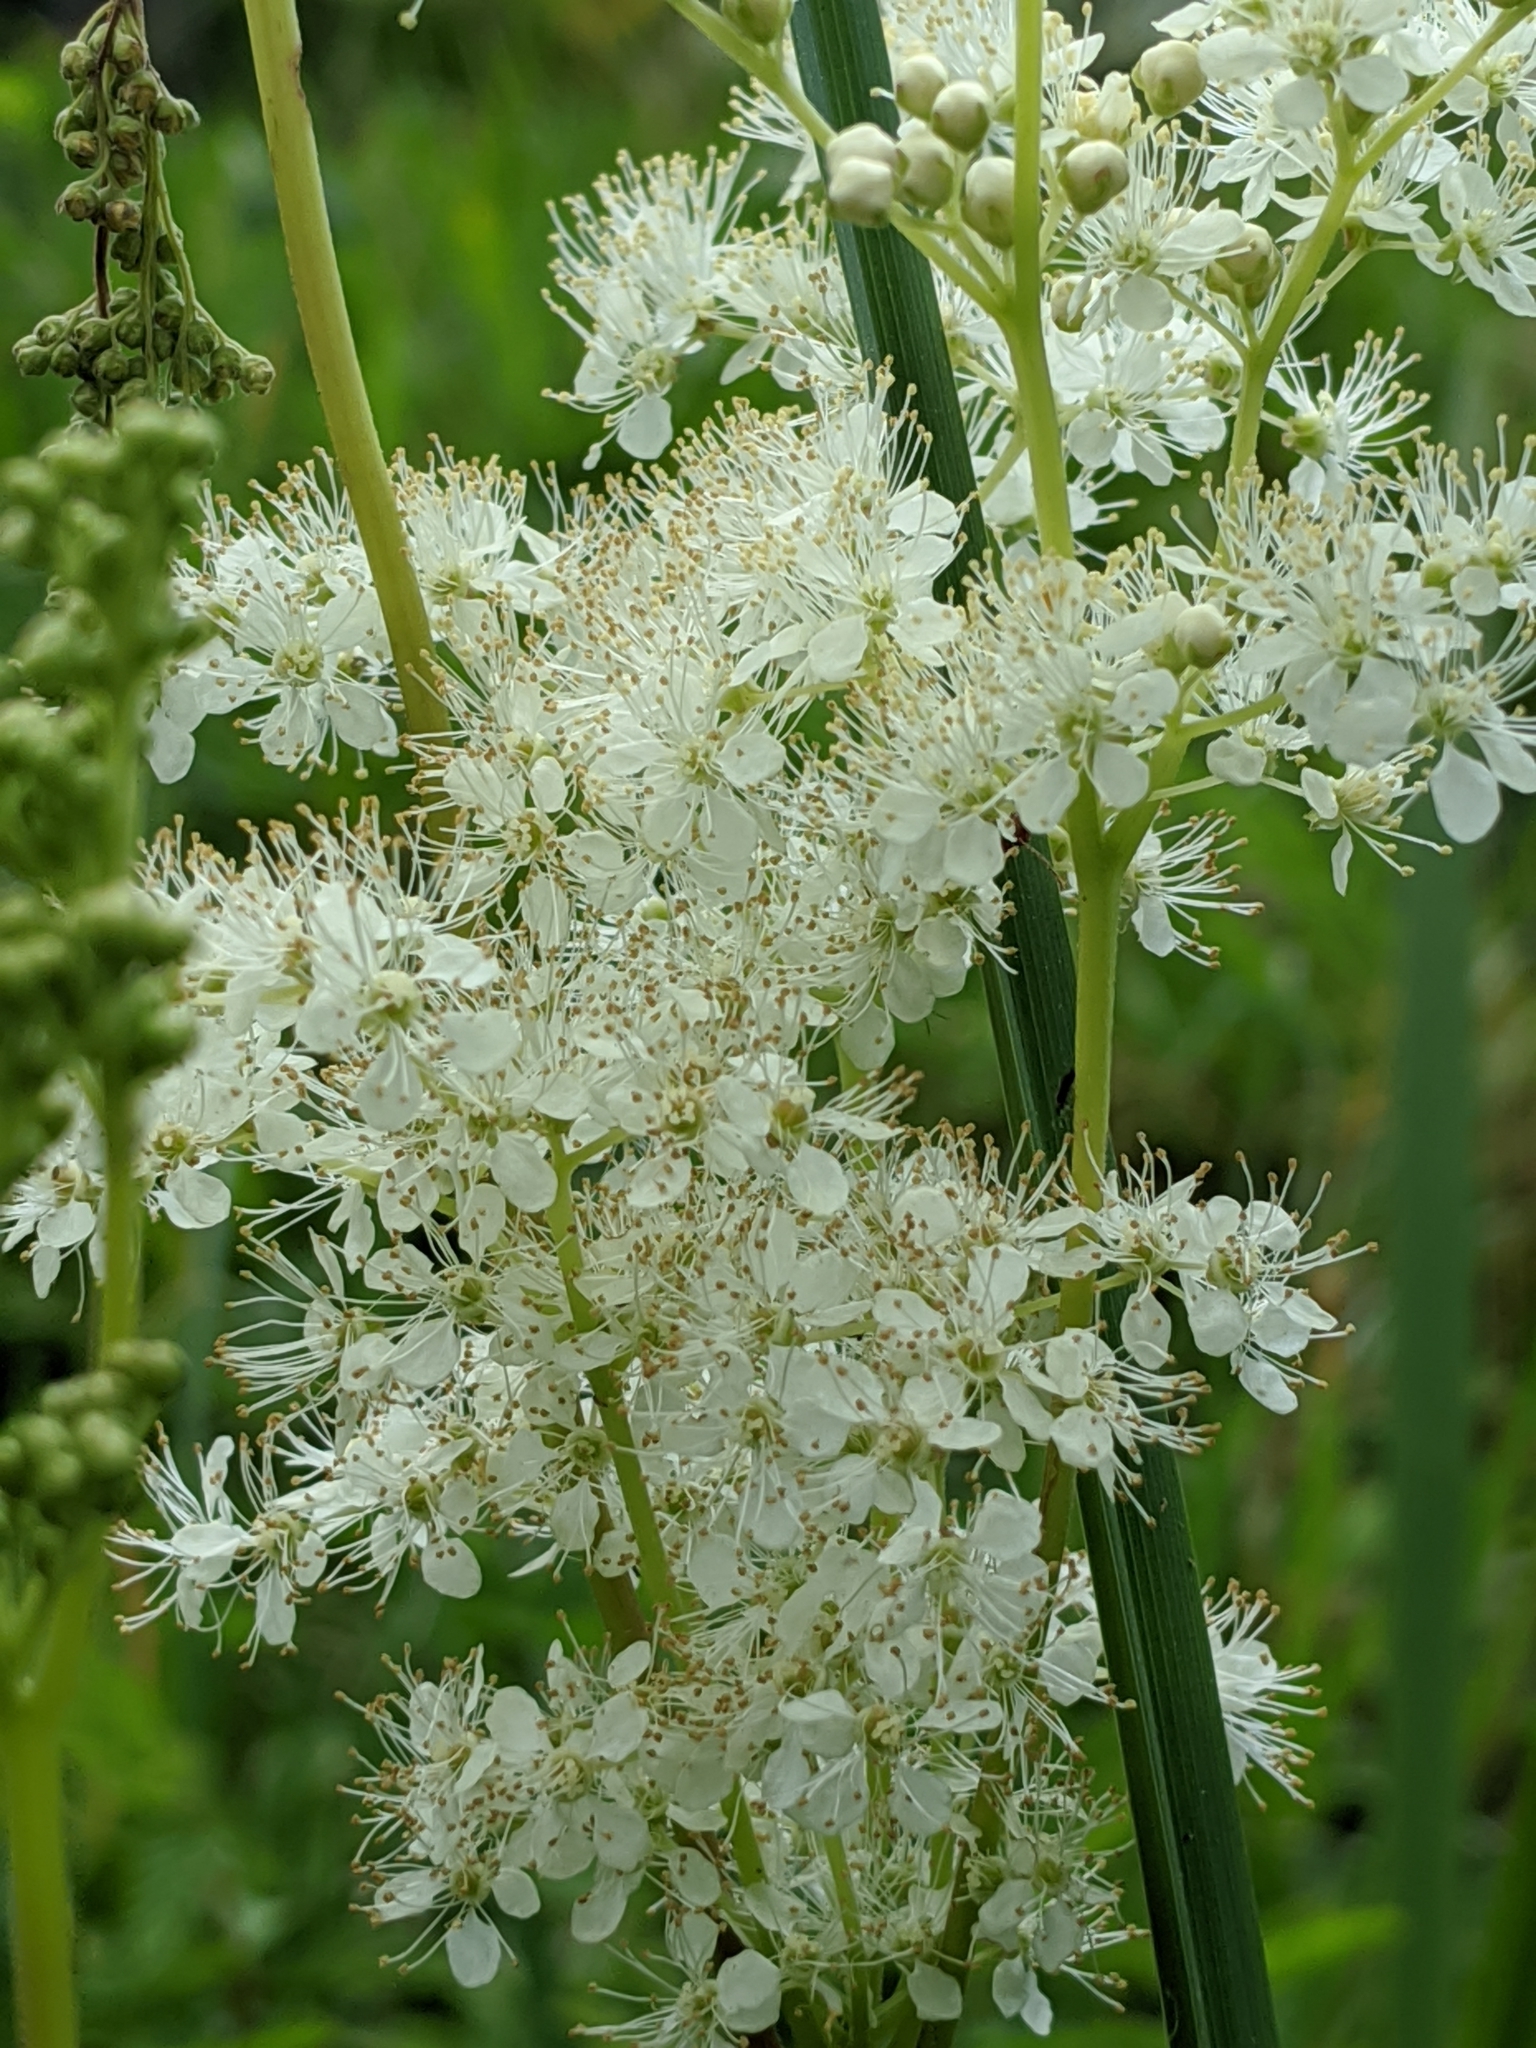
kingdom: Plantae
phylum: Tracheophyta
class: Magnoliopsida
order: Rosales
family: Rosaceae
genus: Filipendula
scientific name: Filipendula ulmaria
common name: Meadowsweet
